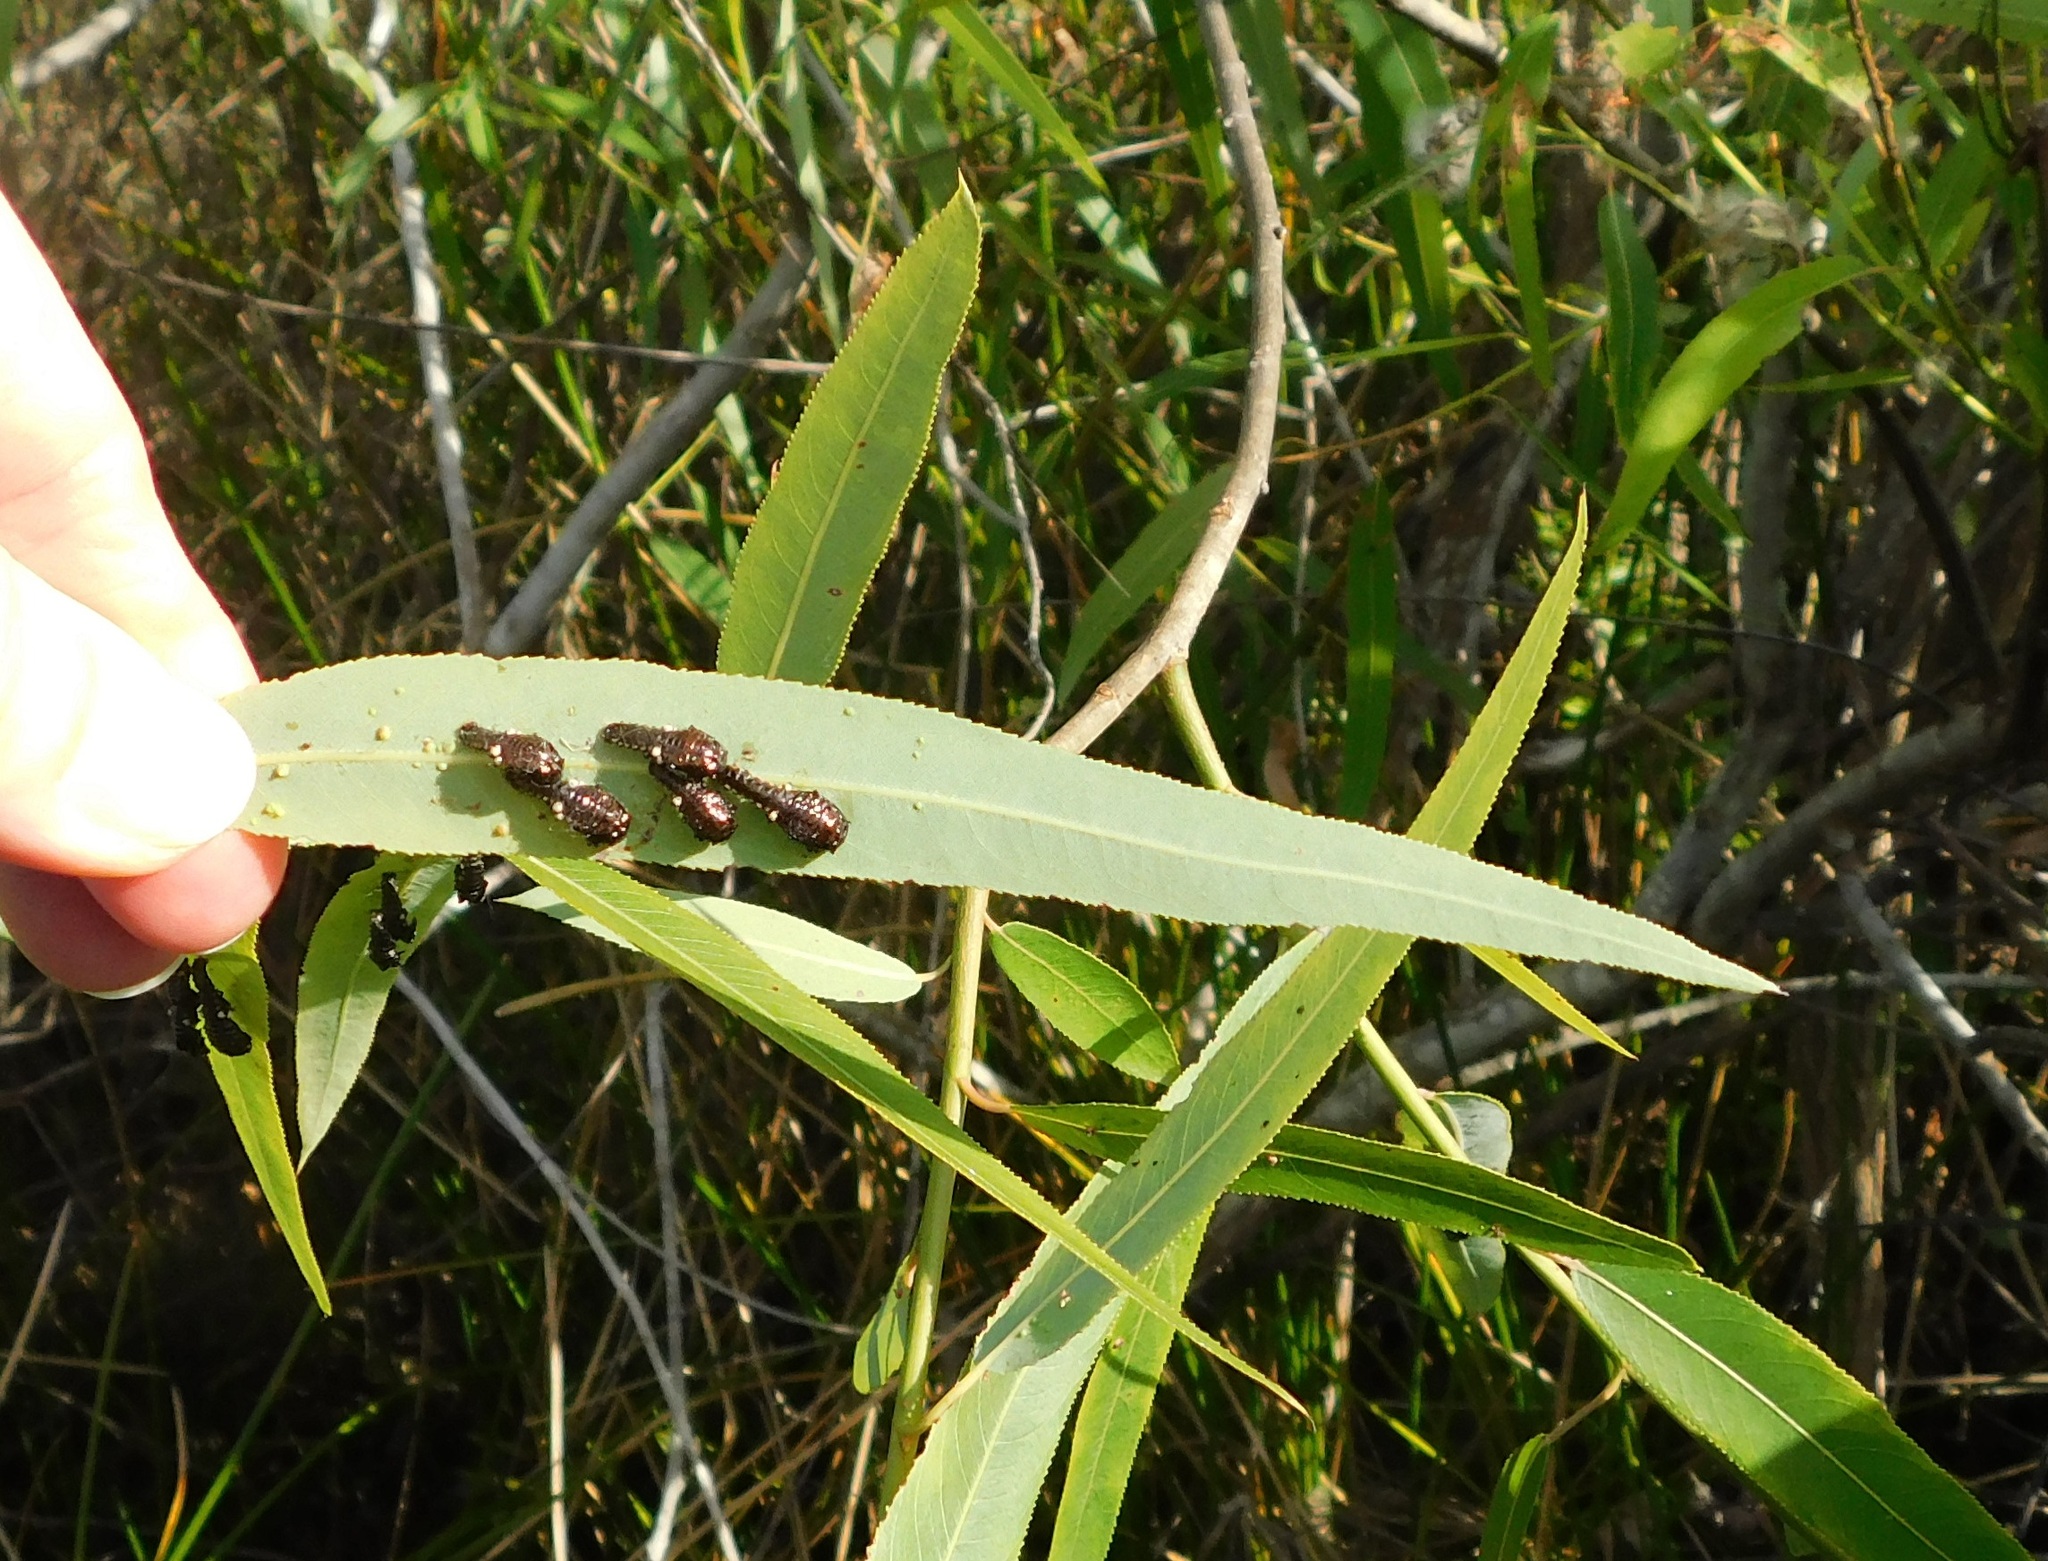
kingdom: Animalia
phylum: Arthropoda
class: Insecta
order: Coleoptera
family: Chrysomelidae
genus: Aethiopocassis
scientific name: Aethiopocassis scripta
